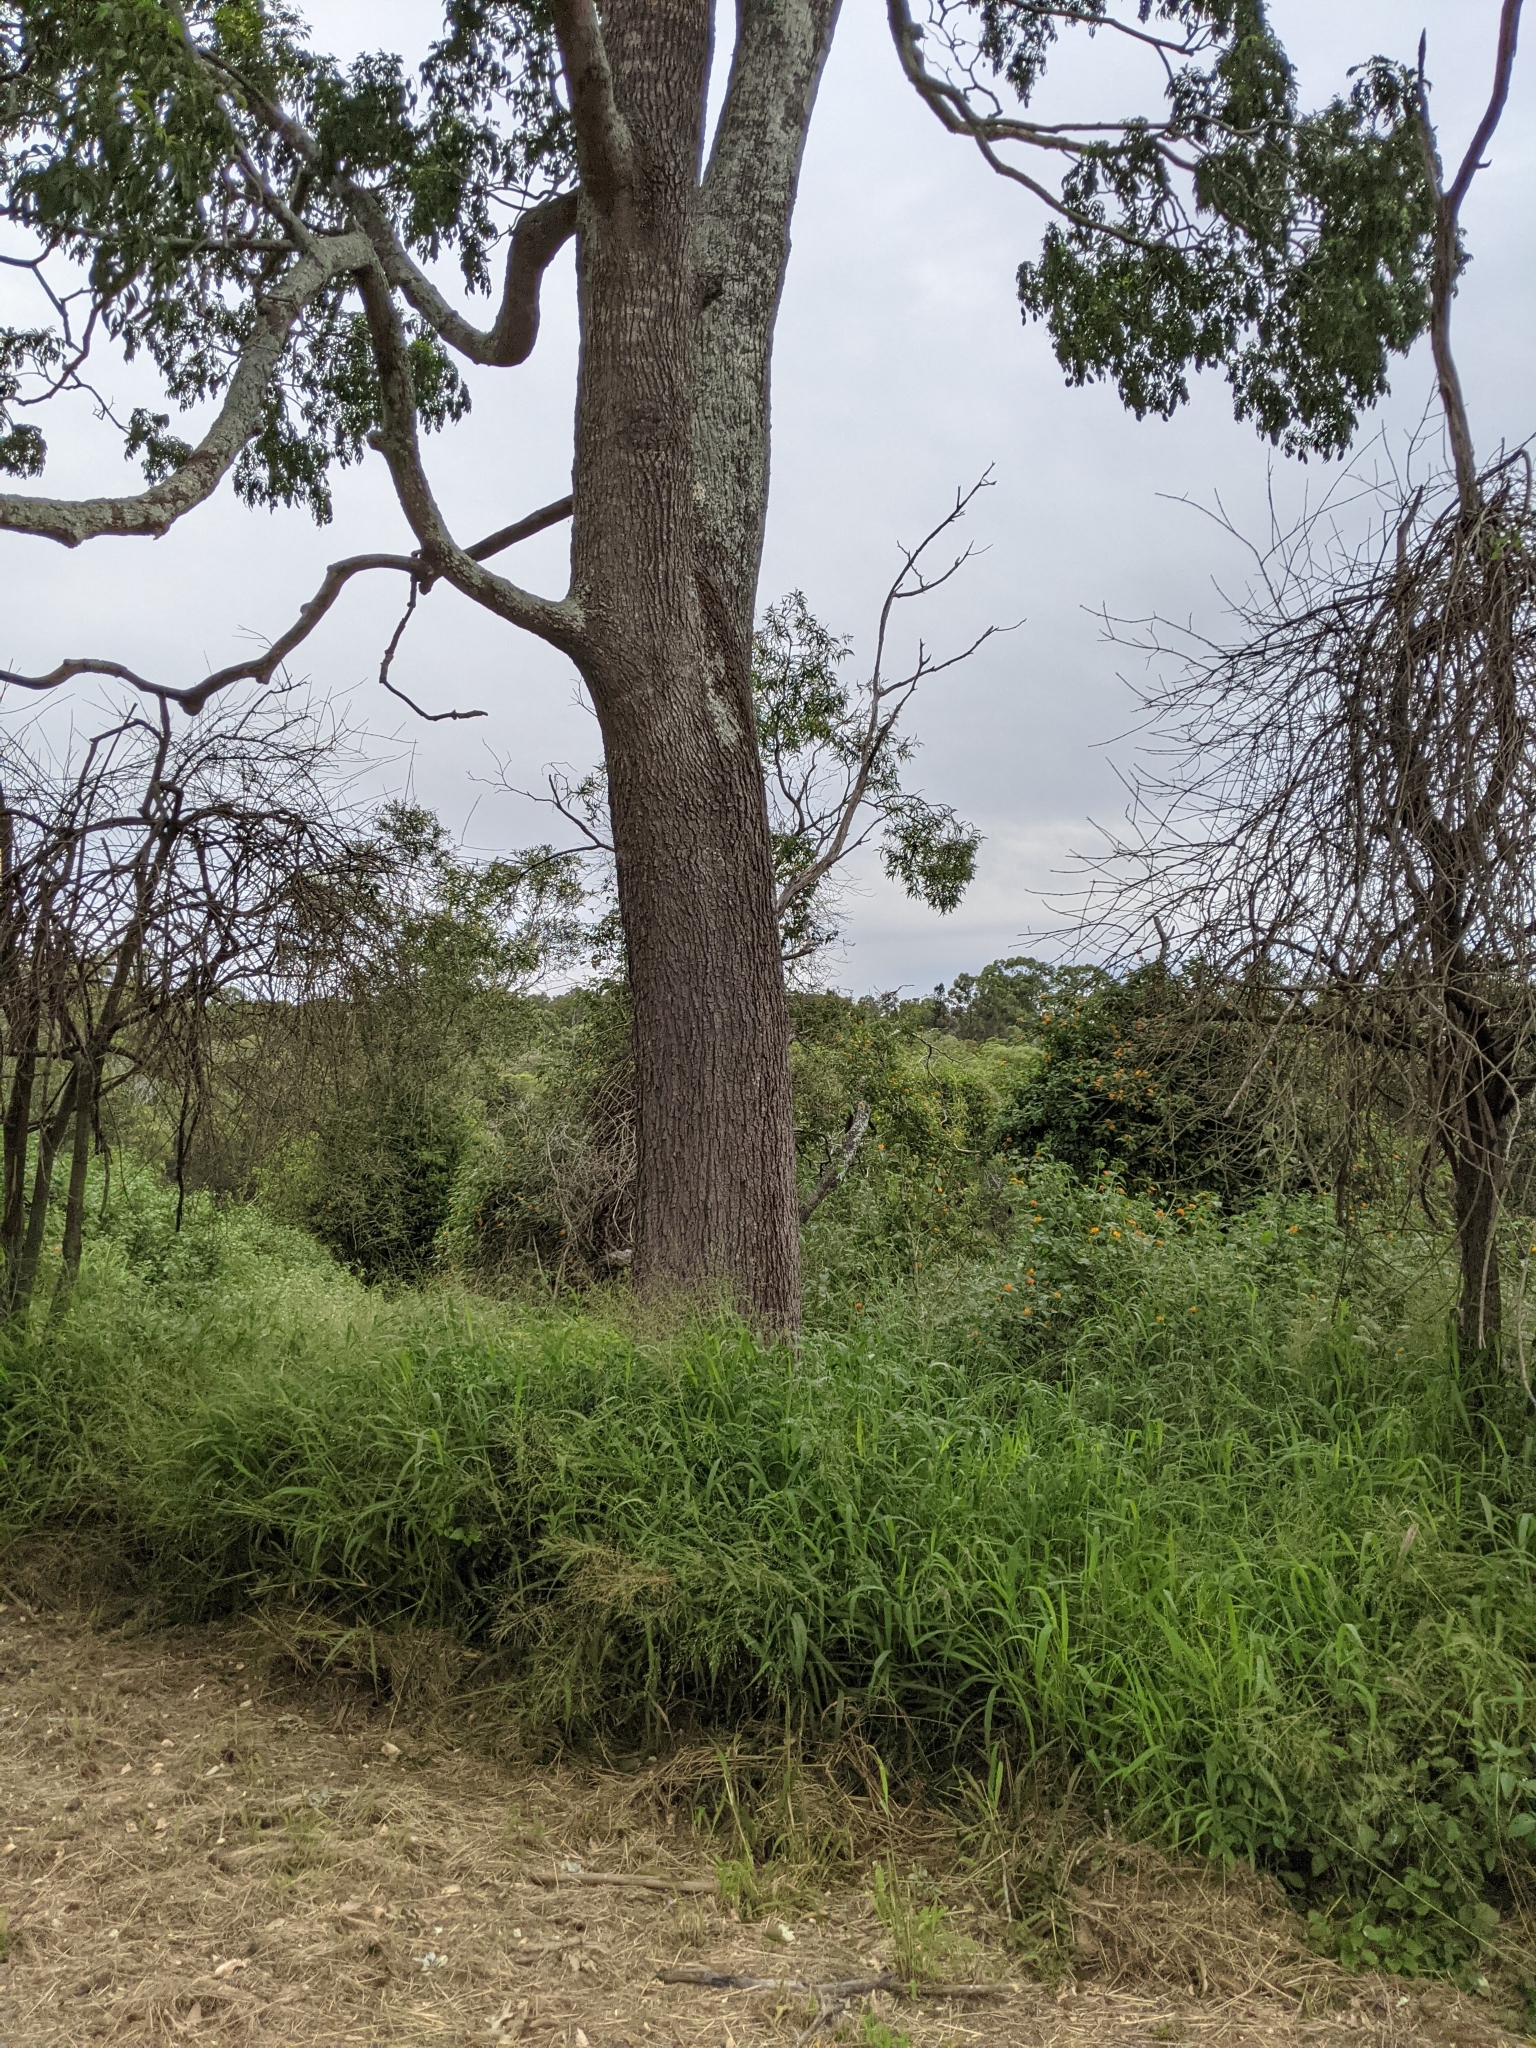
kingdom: Plantae
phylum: Tracheophyta
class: Magnoliopsida
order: Sapindales
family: Rutaceae
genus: Flindersia
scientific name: Flindersia xanthoxyla
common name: Long-jack
